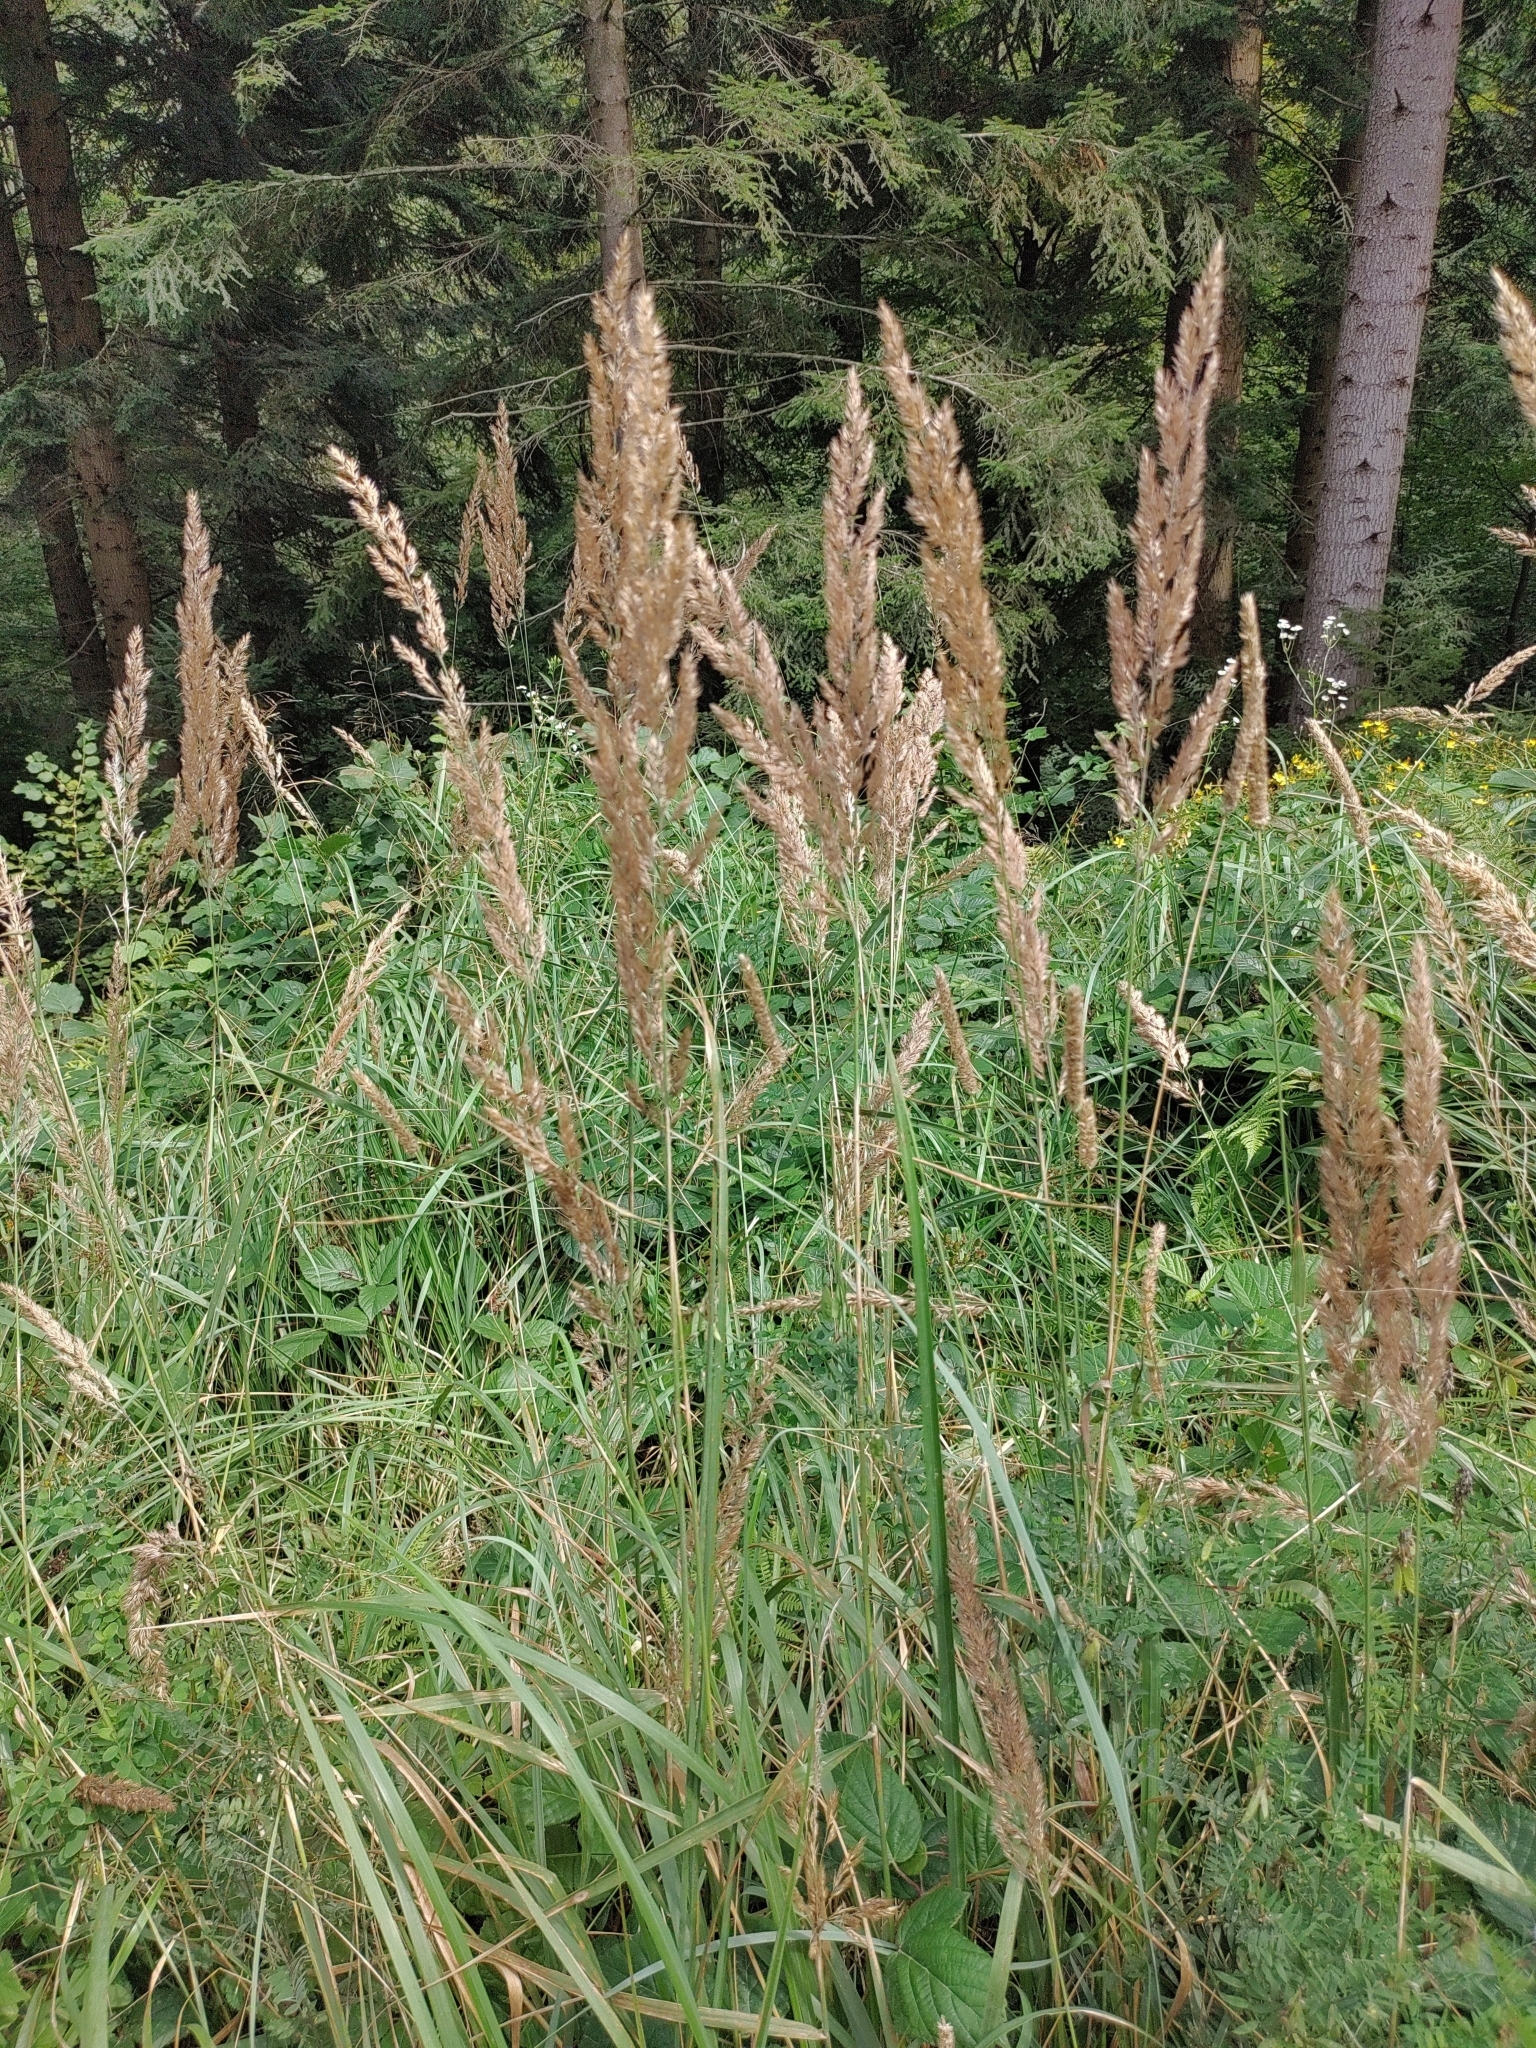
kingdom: Plantae
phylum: Tracheophyta
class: Liliopsida
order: Poales
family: Poaceae
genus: Calamagrostis
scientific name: Calamagrostis epigejos
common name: Wood small-reed
